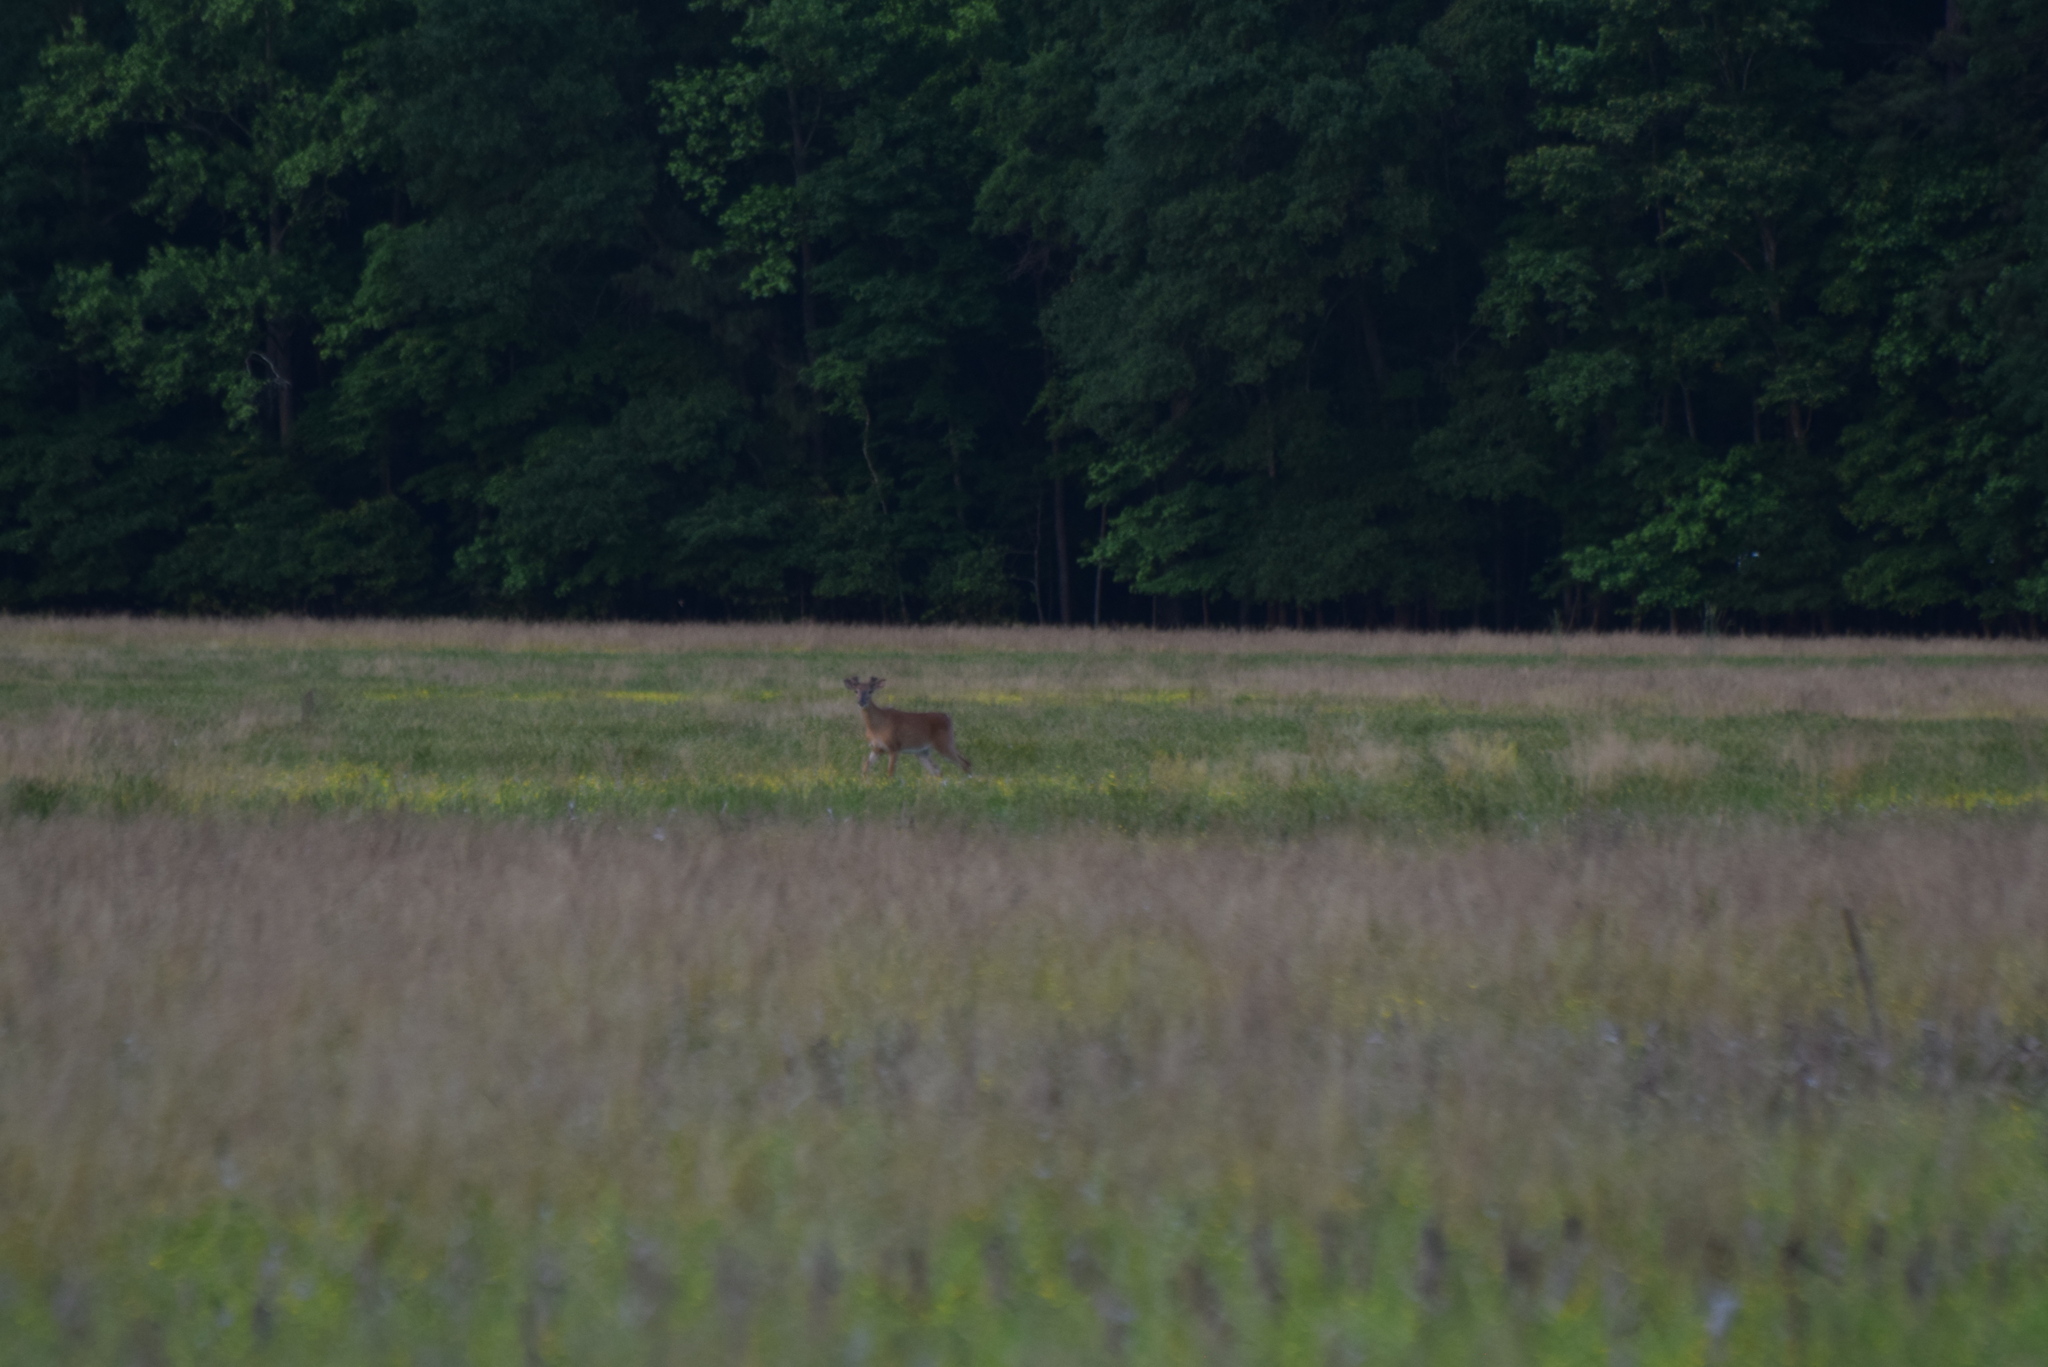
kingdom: Animalia
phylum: Chordata
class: Mammalia
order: Artiodactyla
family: Cervidae
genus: Odocoileus
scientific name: Odocoileus virginianus
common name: White-tailed deer
